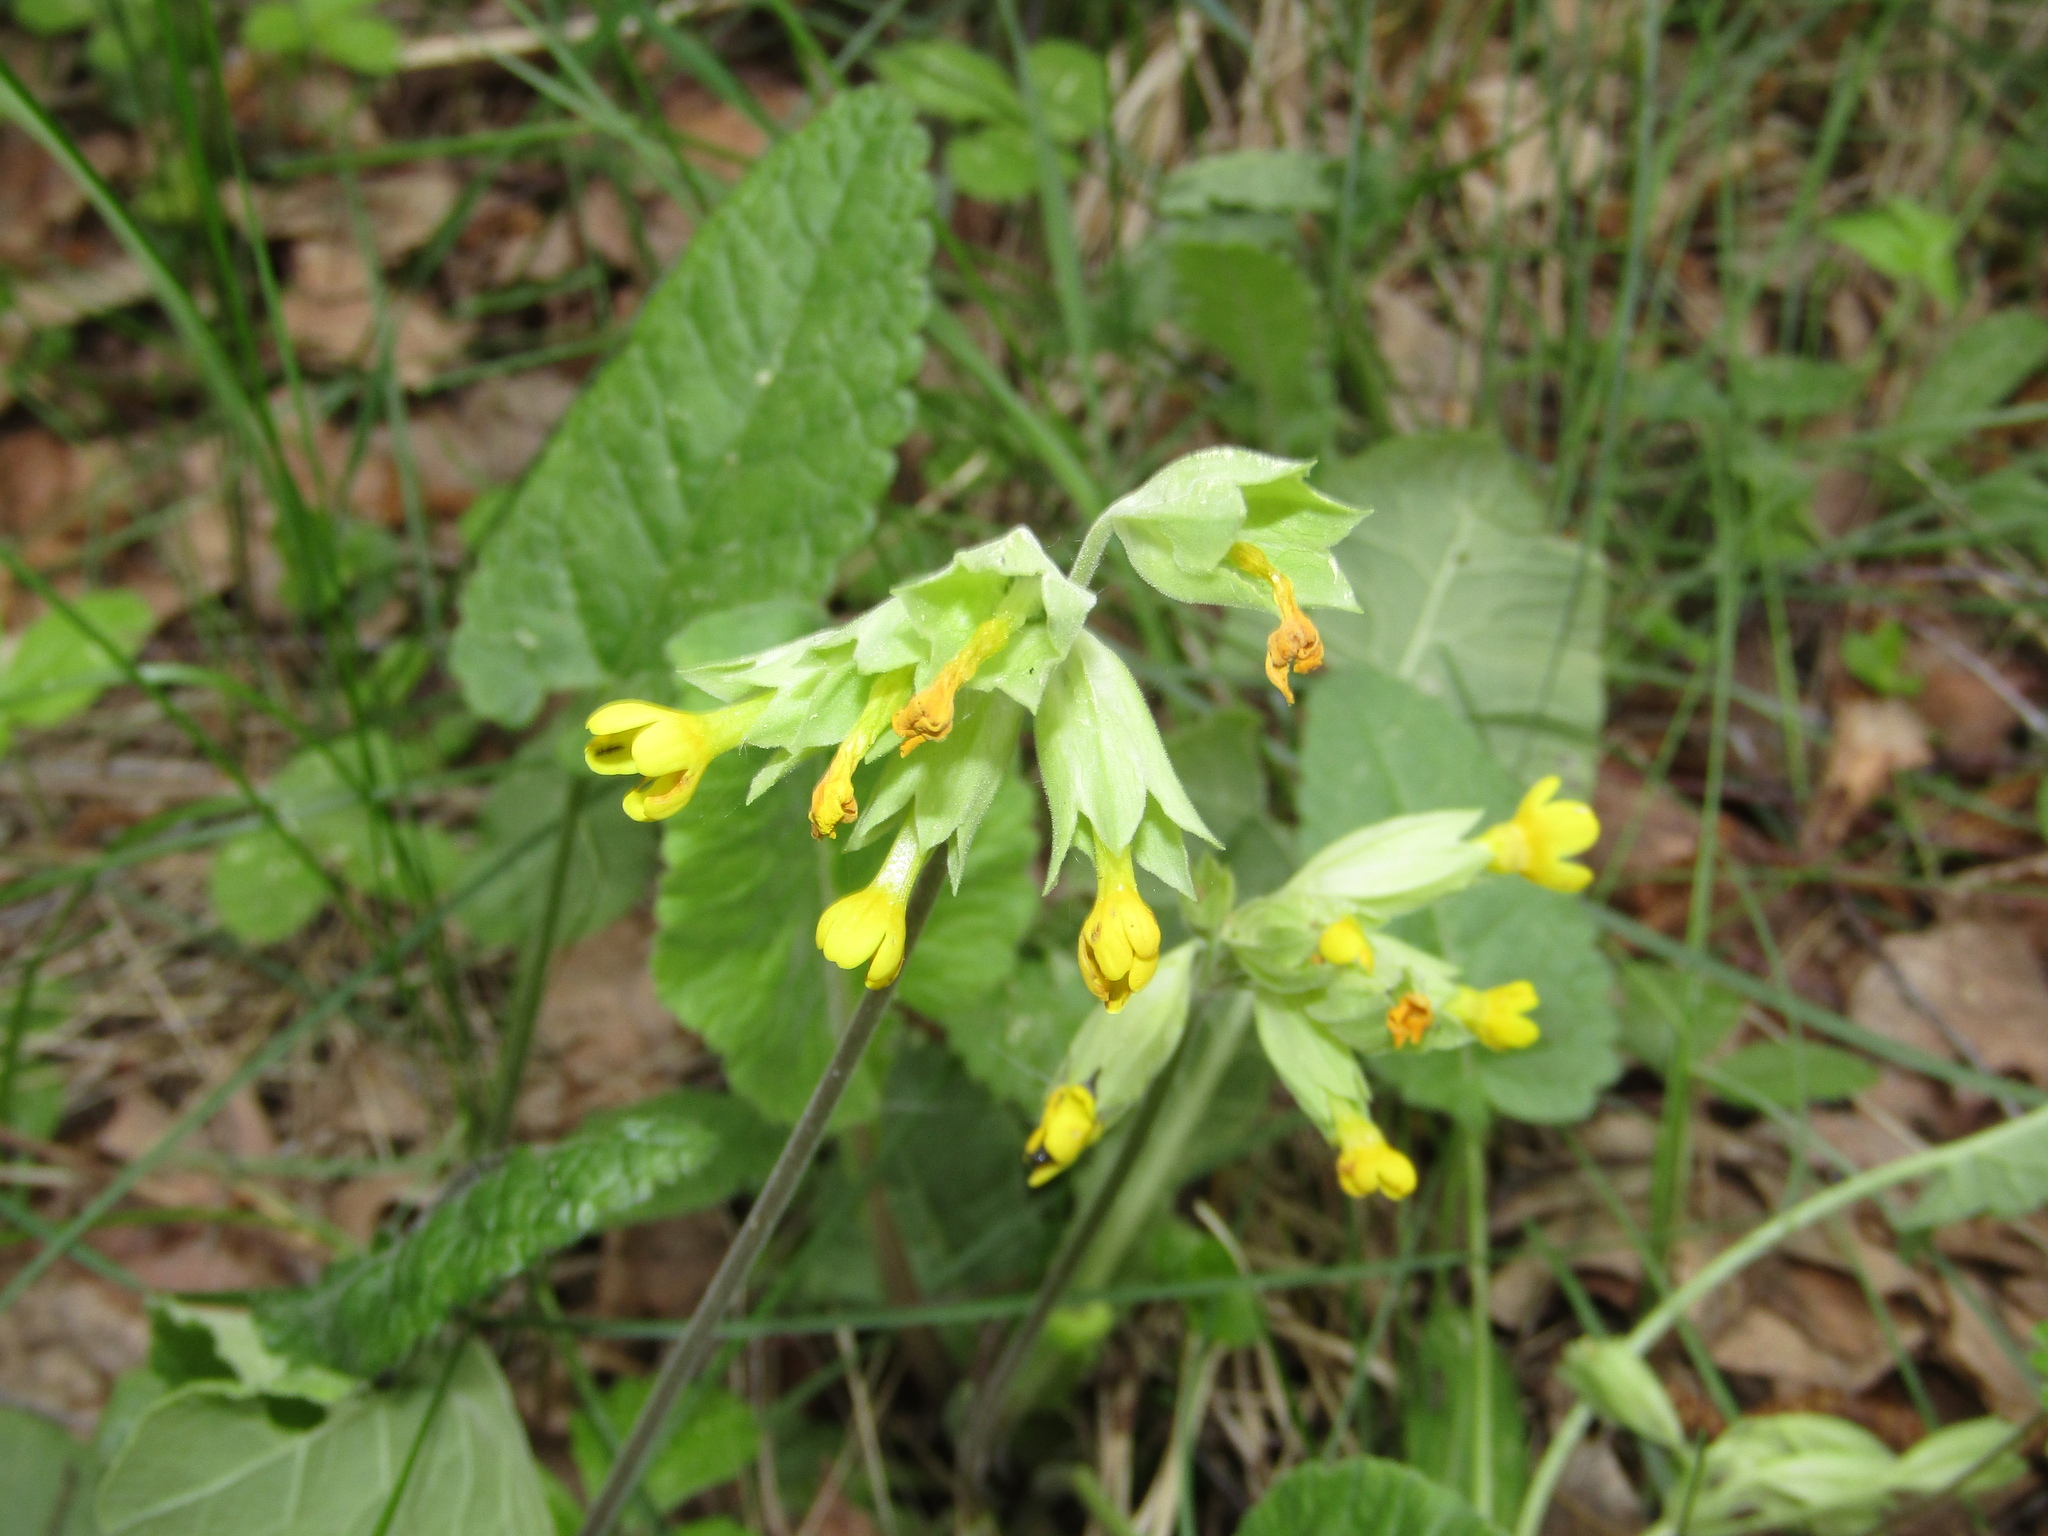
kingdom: Plantae
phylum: Tracheophyta
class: Magnoliopsida
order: Ericales
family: Primulaceae
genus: Primula
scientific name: Primula veris
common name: Cowslip
